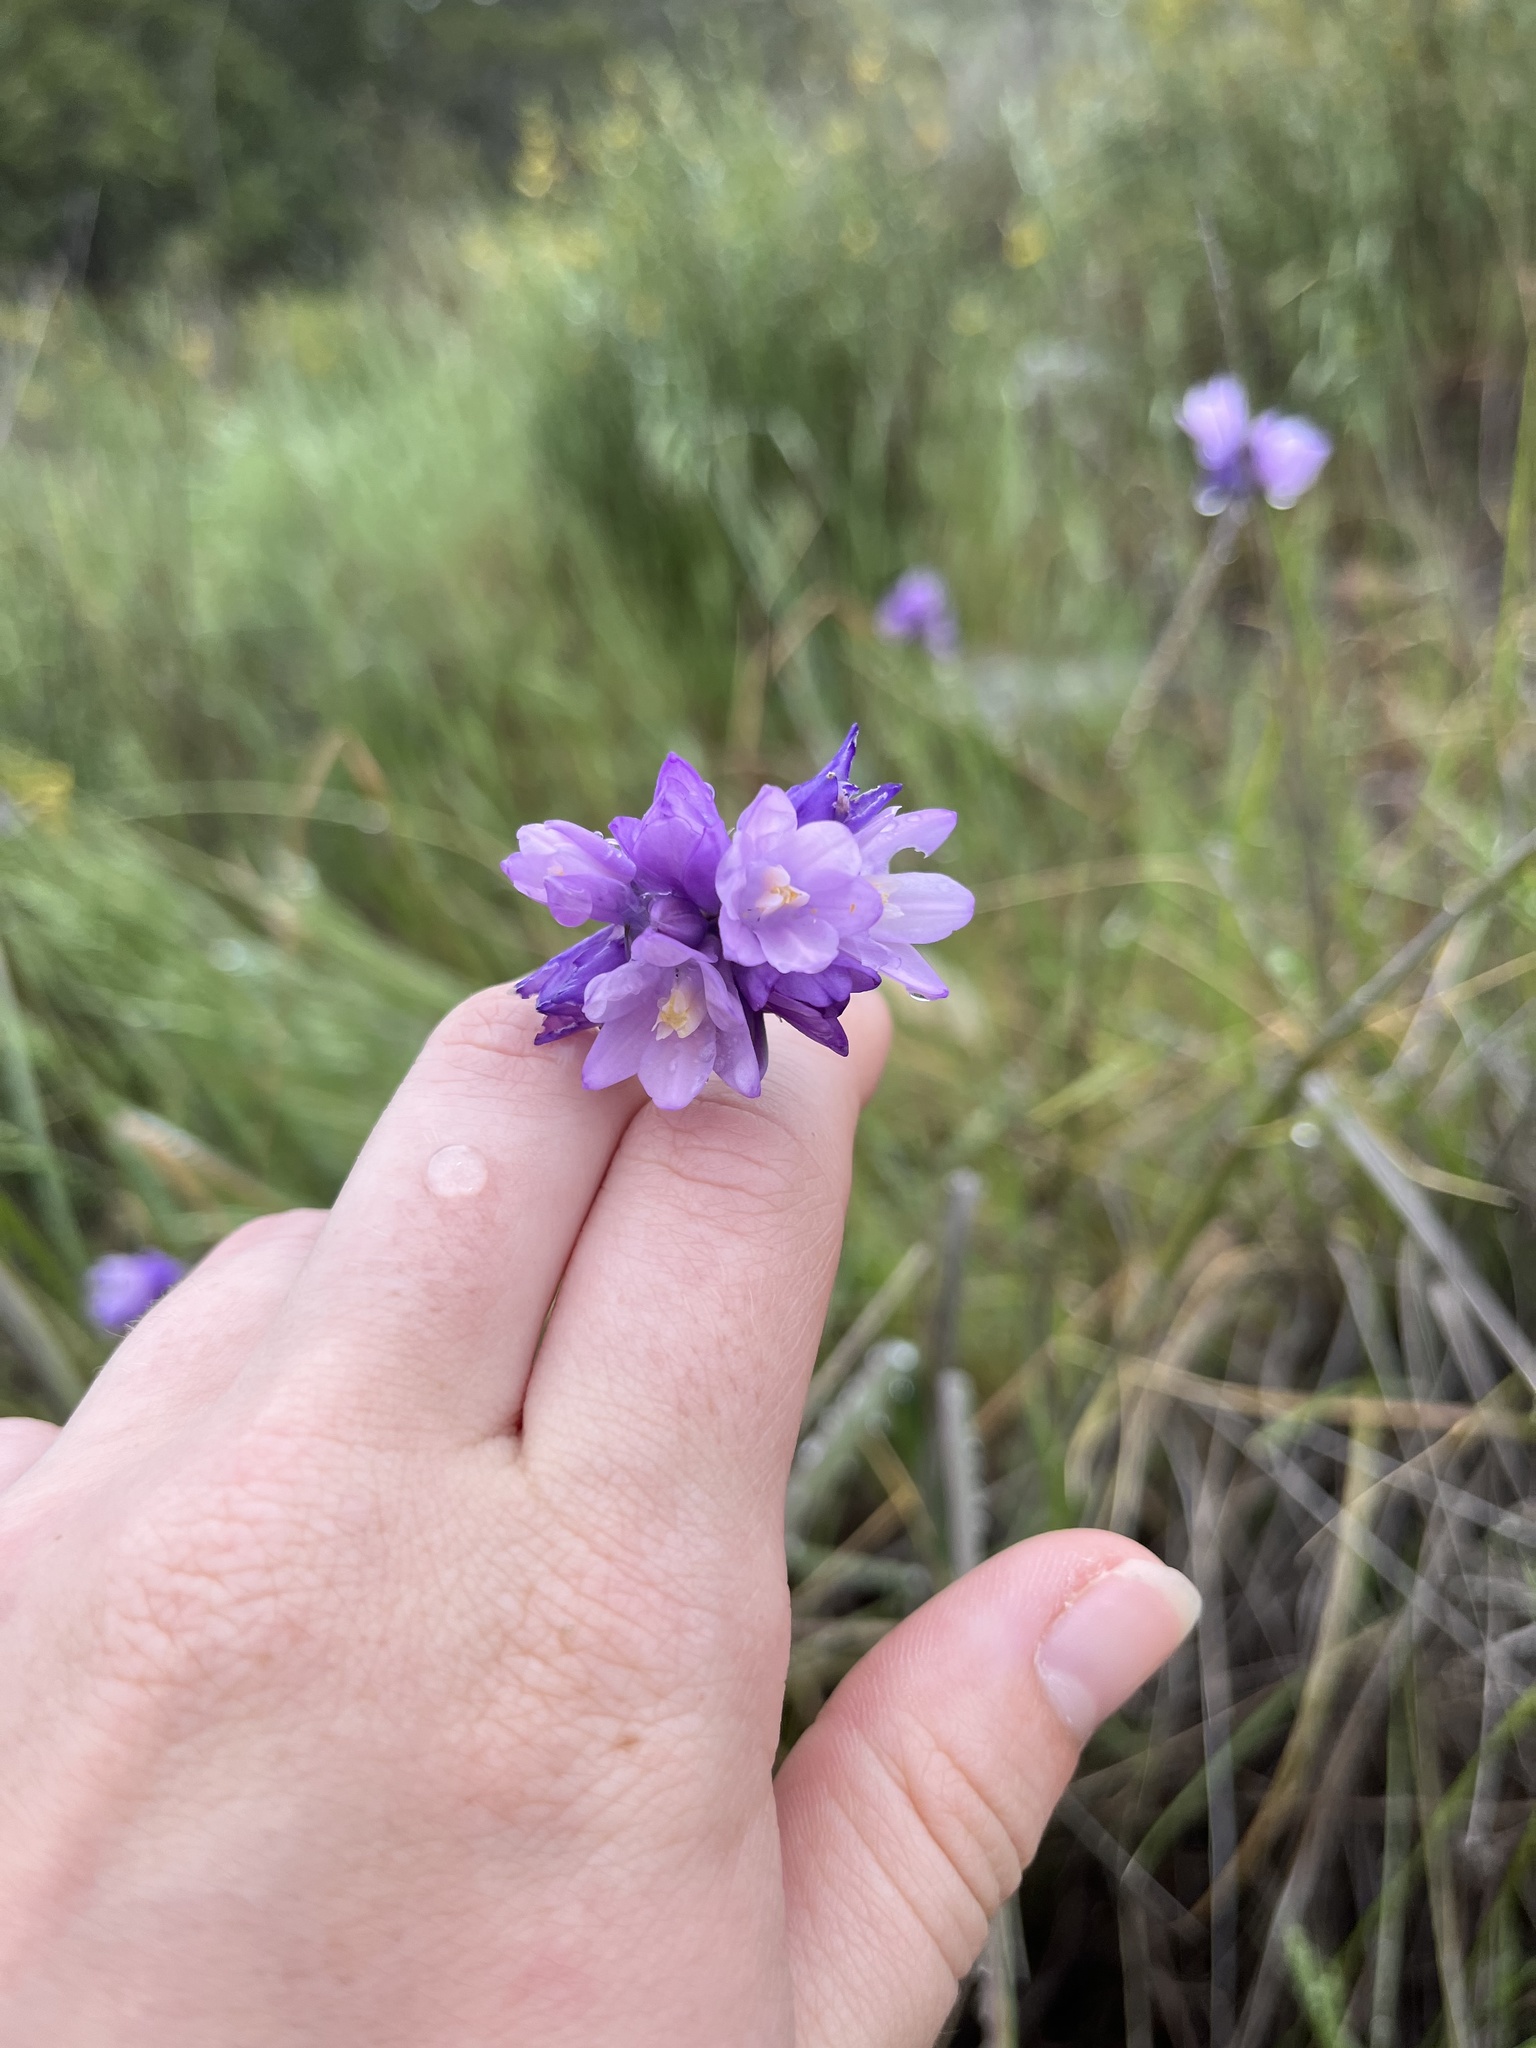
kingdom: Plantae
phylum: Tracheophyta
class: Liliopsida
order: Asparagales
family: Asparagaceae
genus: Dipterostemon
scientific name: Dipterostemon capitatus
